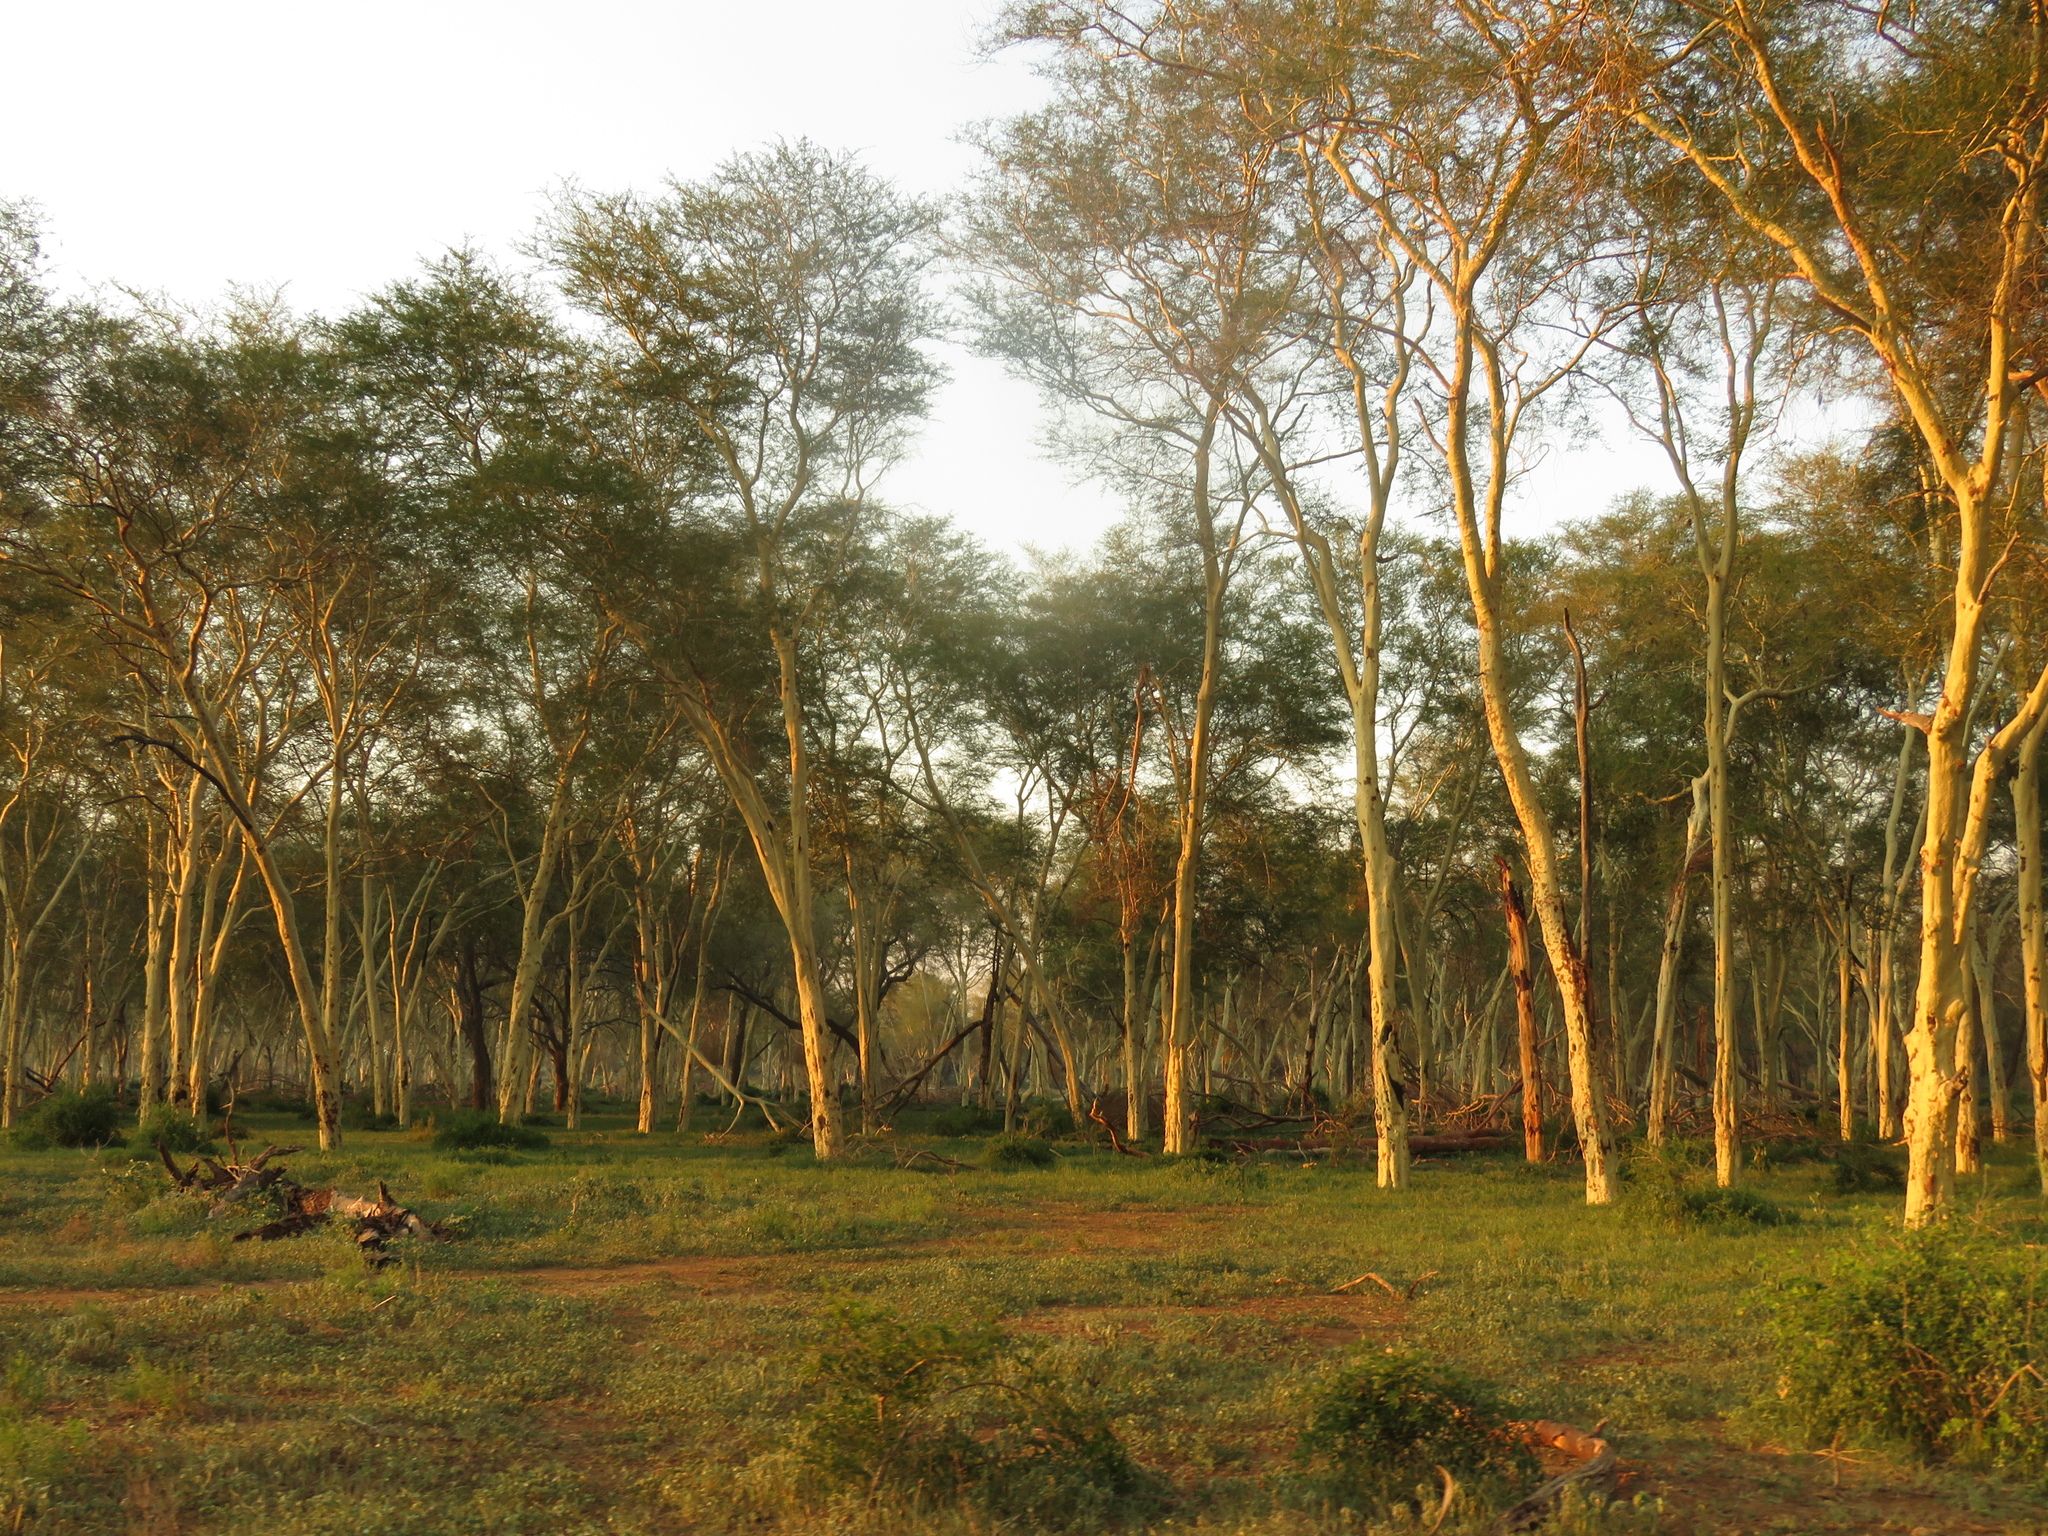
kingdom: Plantae
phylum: Tracheophyta
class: Magnoliopsida
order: Fabales
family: Fabaceae
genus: Vachellia
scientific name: Vachellia xanthophloea
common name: Fever tree
